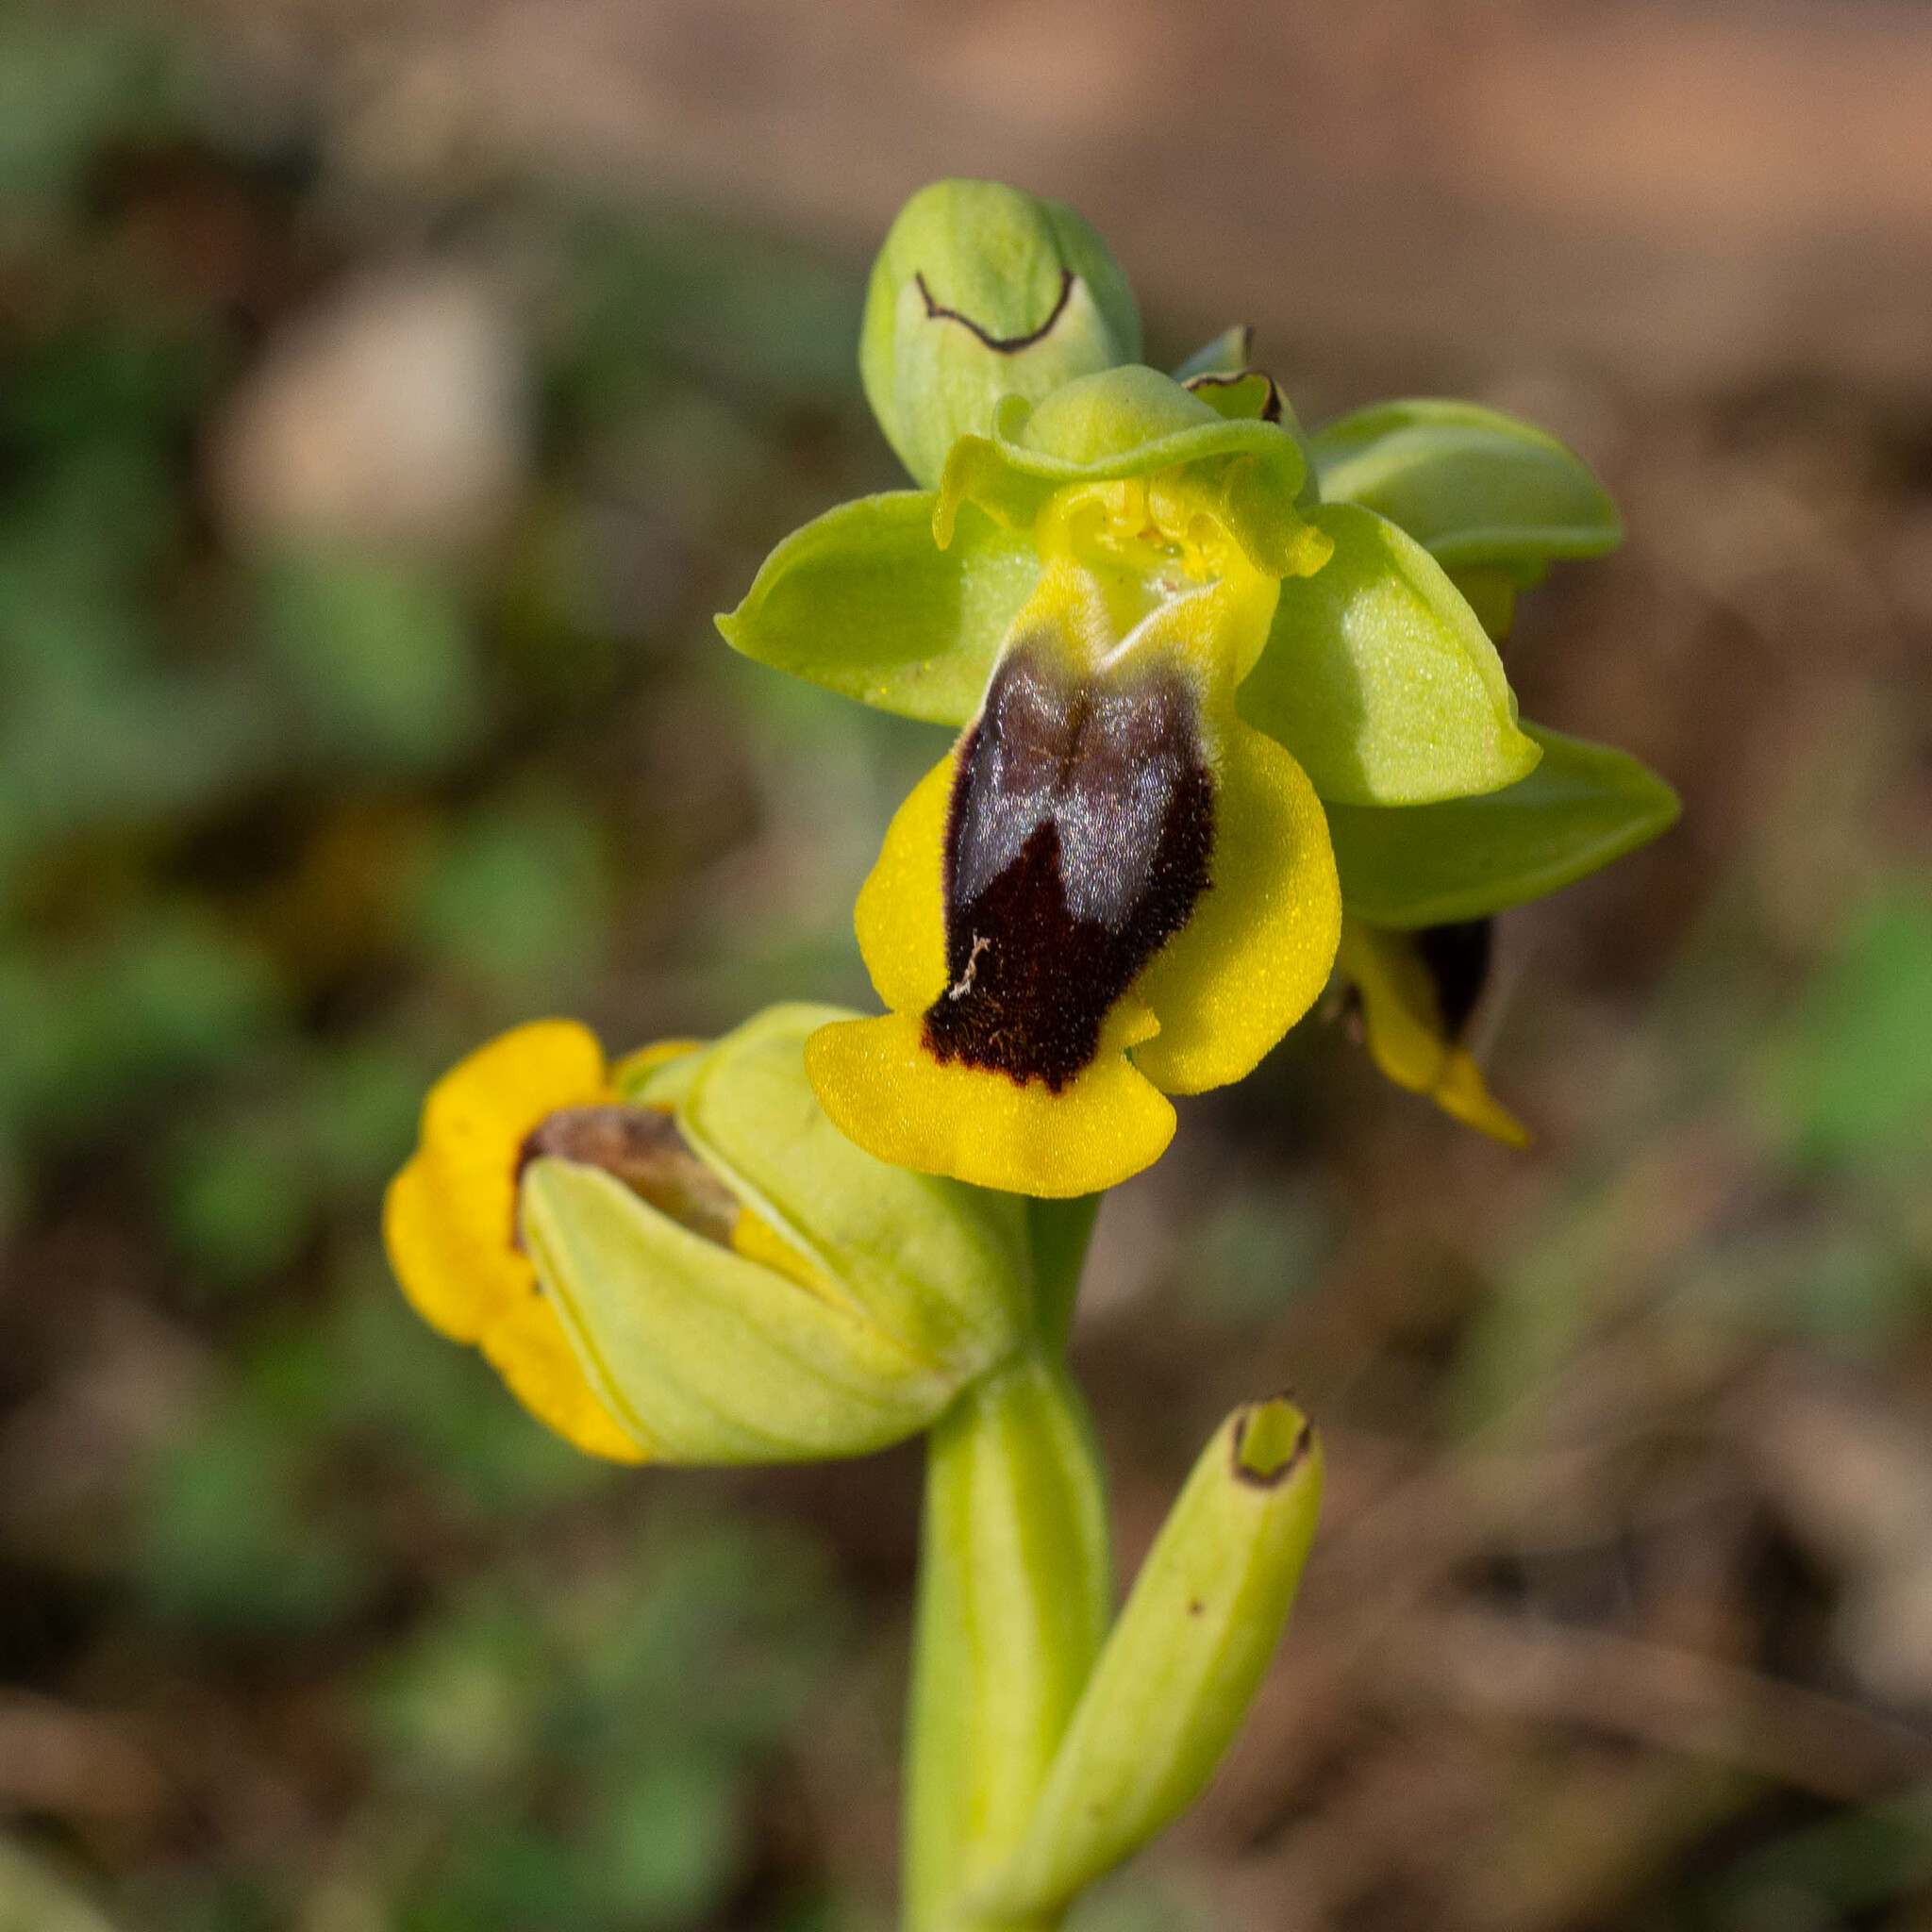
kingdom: Plantae
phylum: Tracheophyta
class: Liliopsida
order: Asparagales
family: Orchidaceae
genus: Ophrys
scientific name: Ophrys lutea
